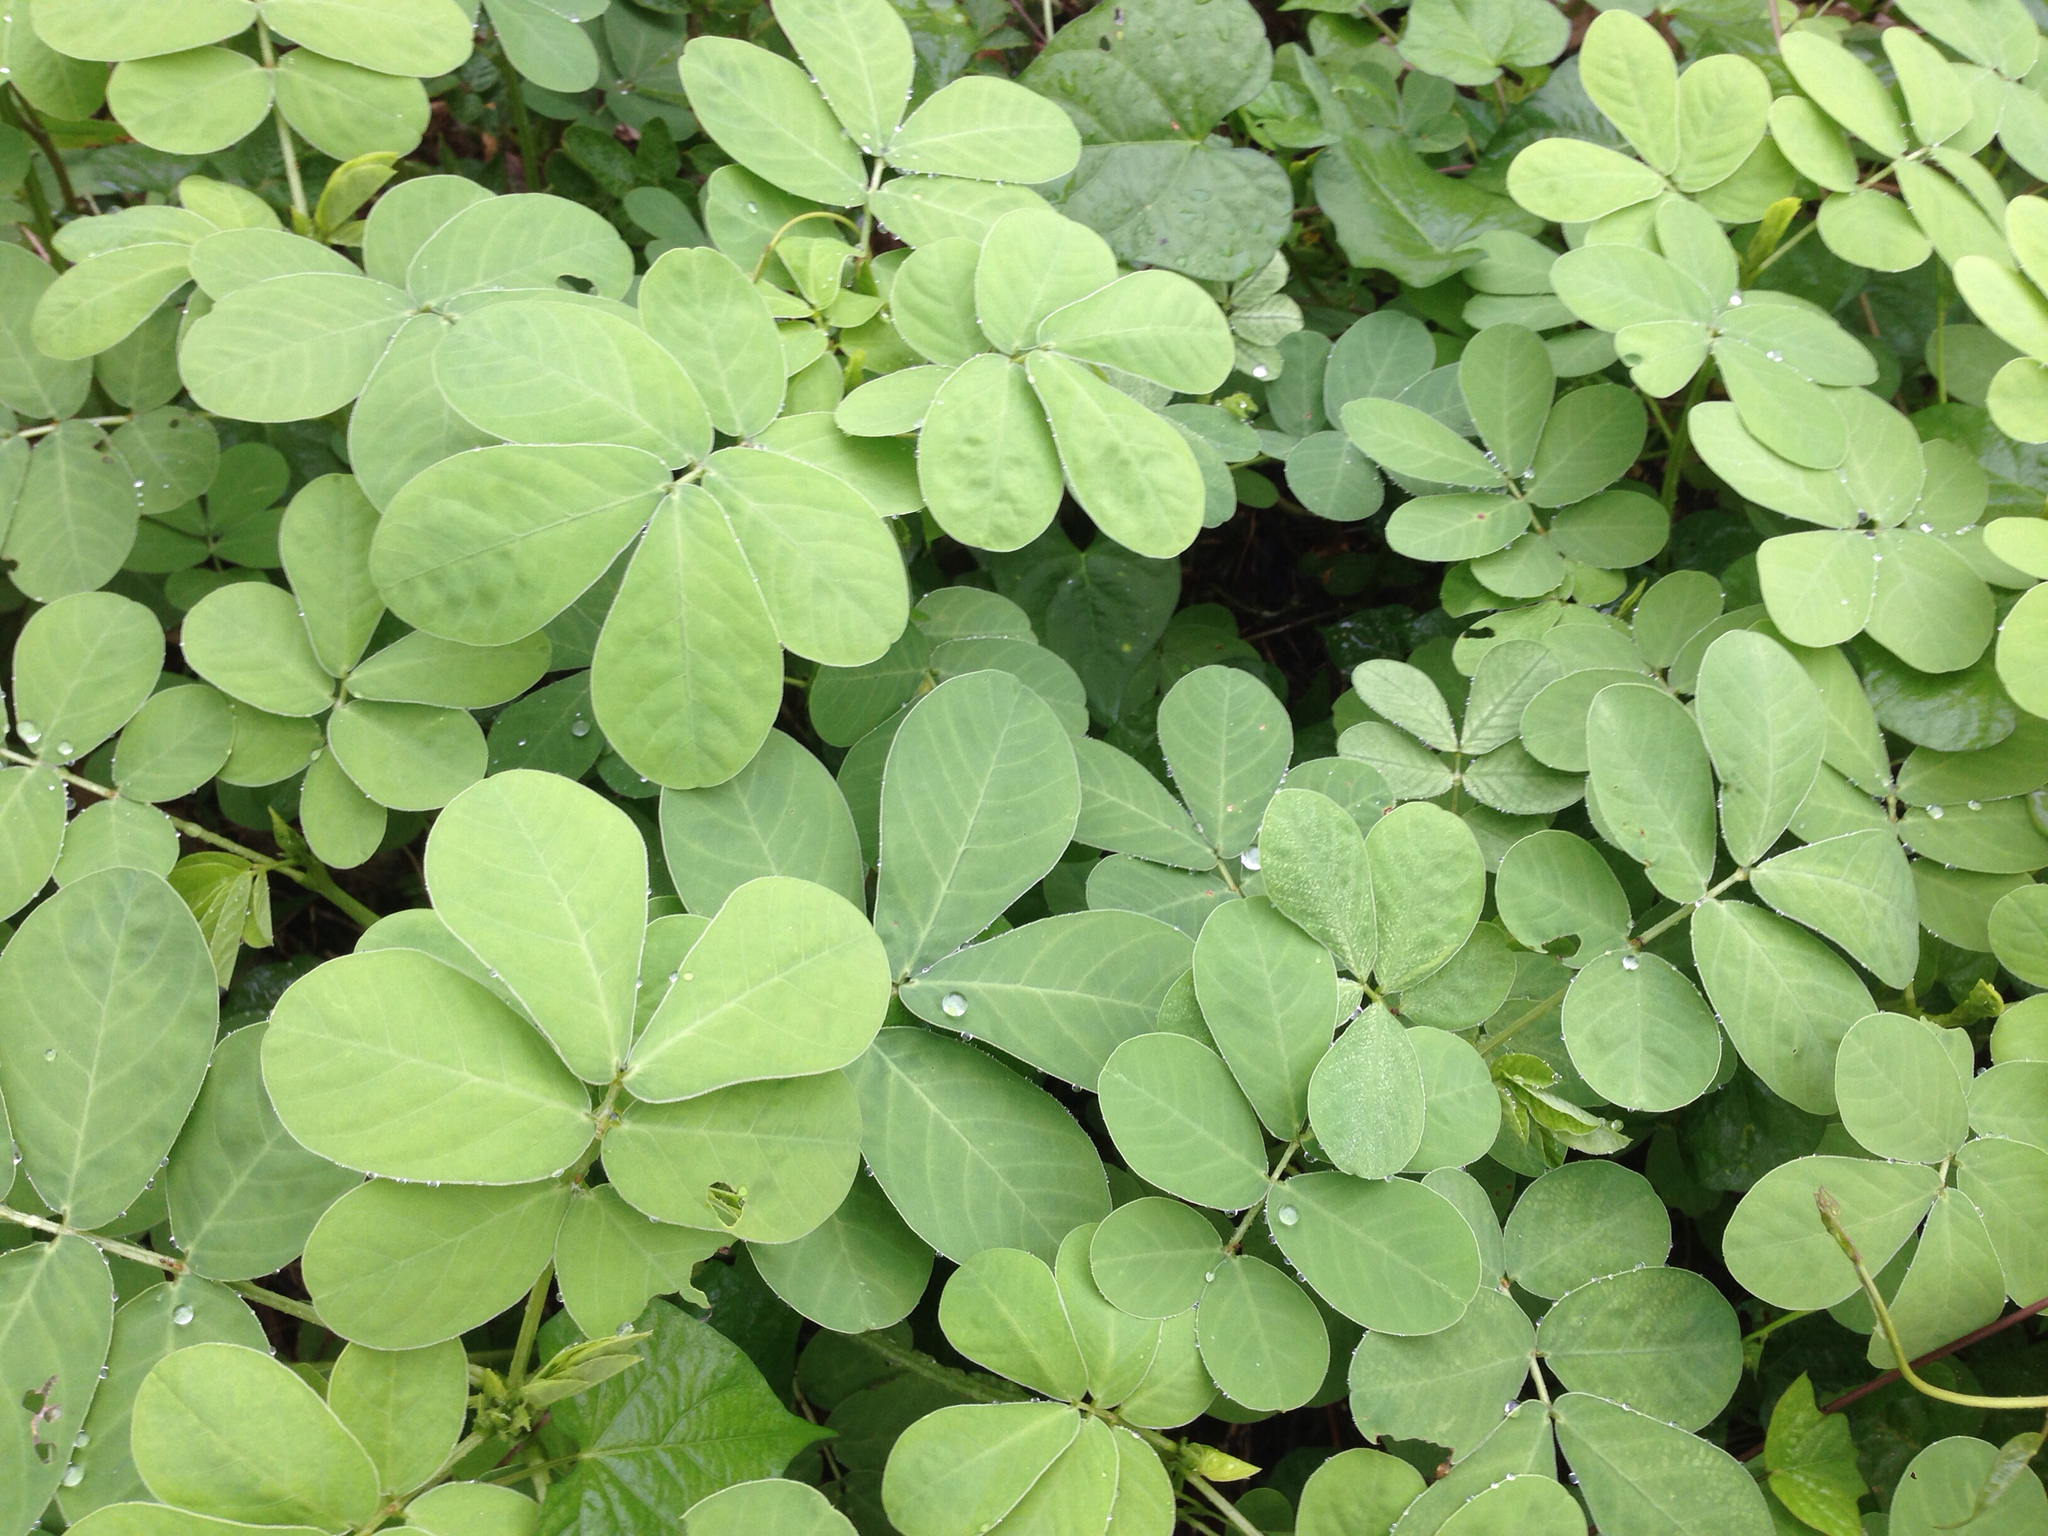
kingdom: Plantae
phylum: Tracheophyta
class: Magnoliopsida
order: Fabales
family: Fabaceae
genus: Senna
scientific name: Senna obtusifolia
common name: Java-bean
